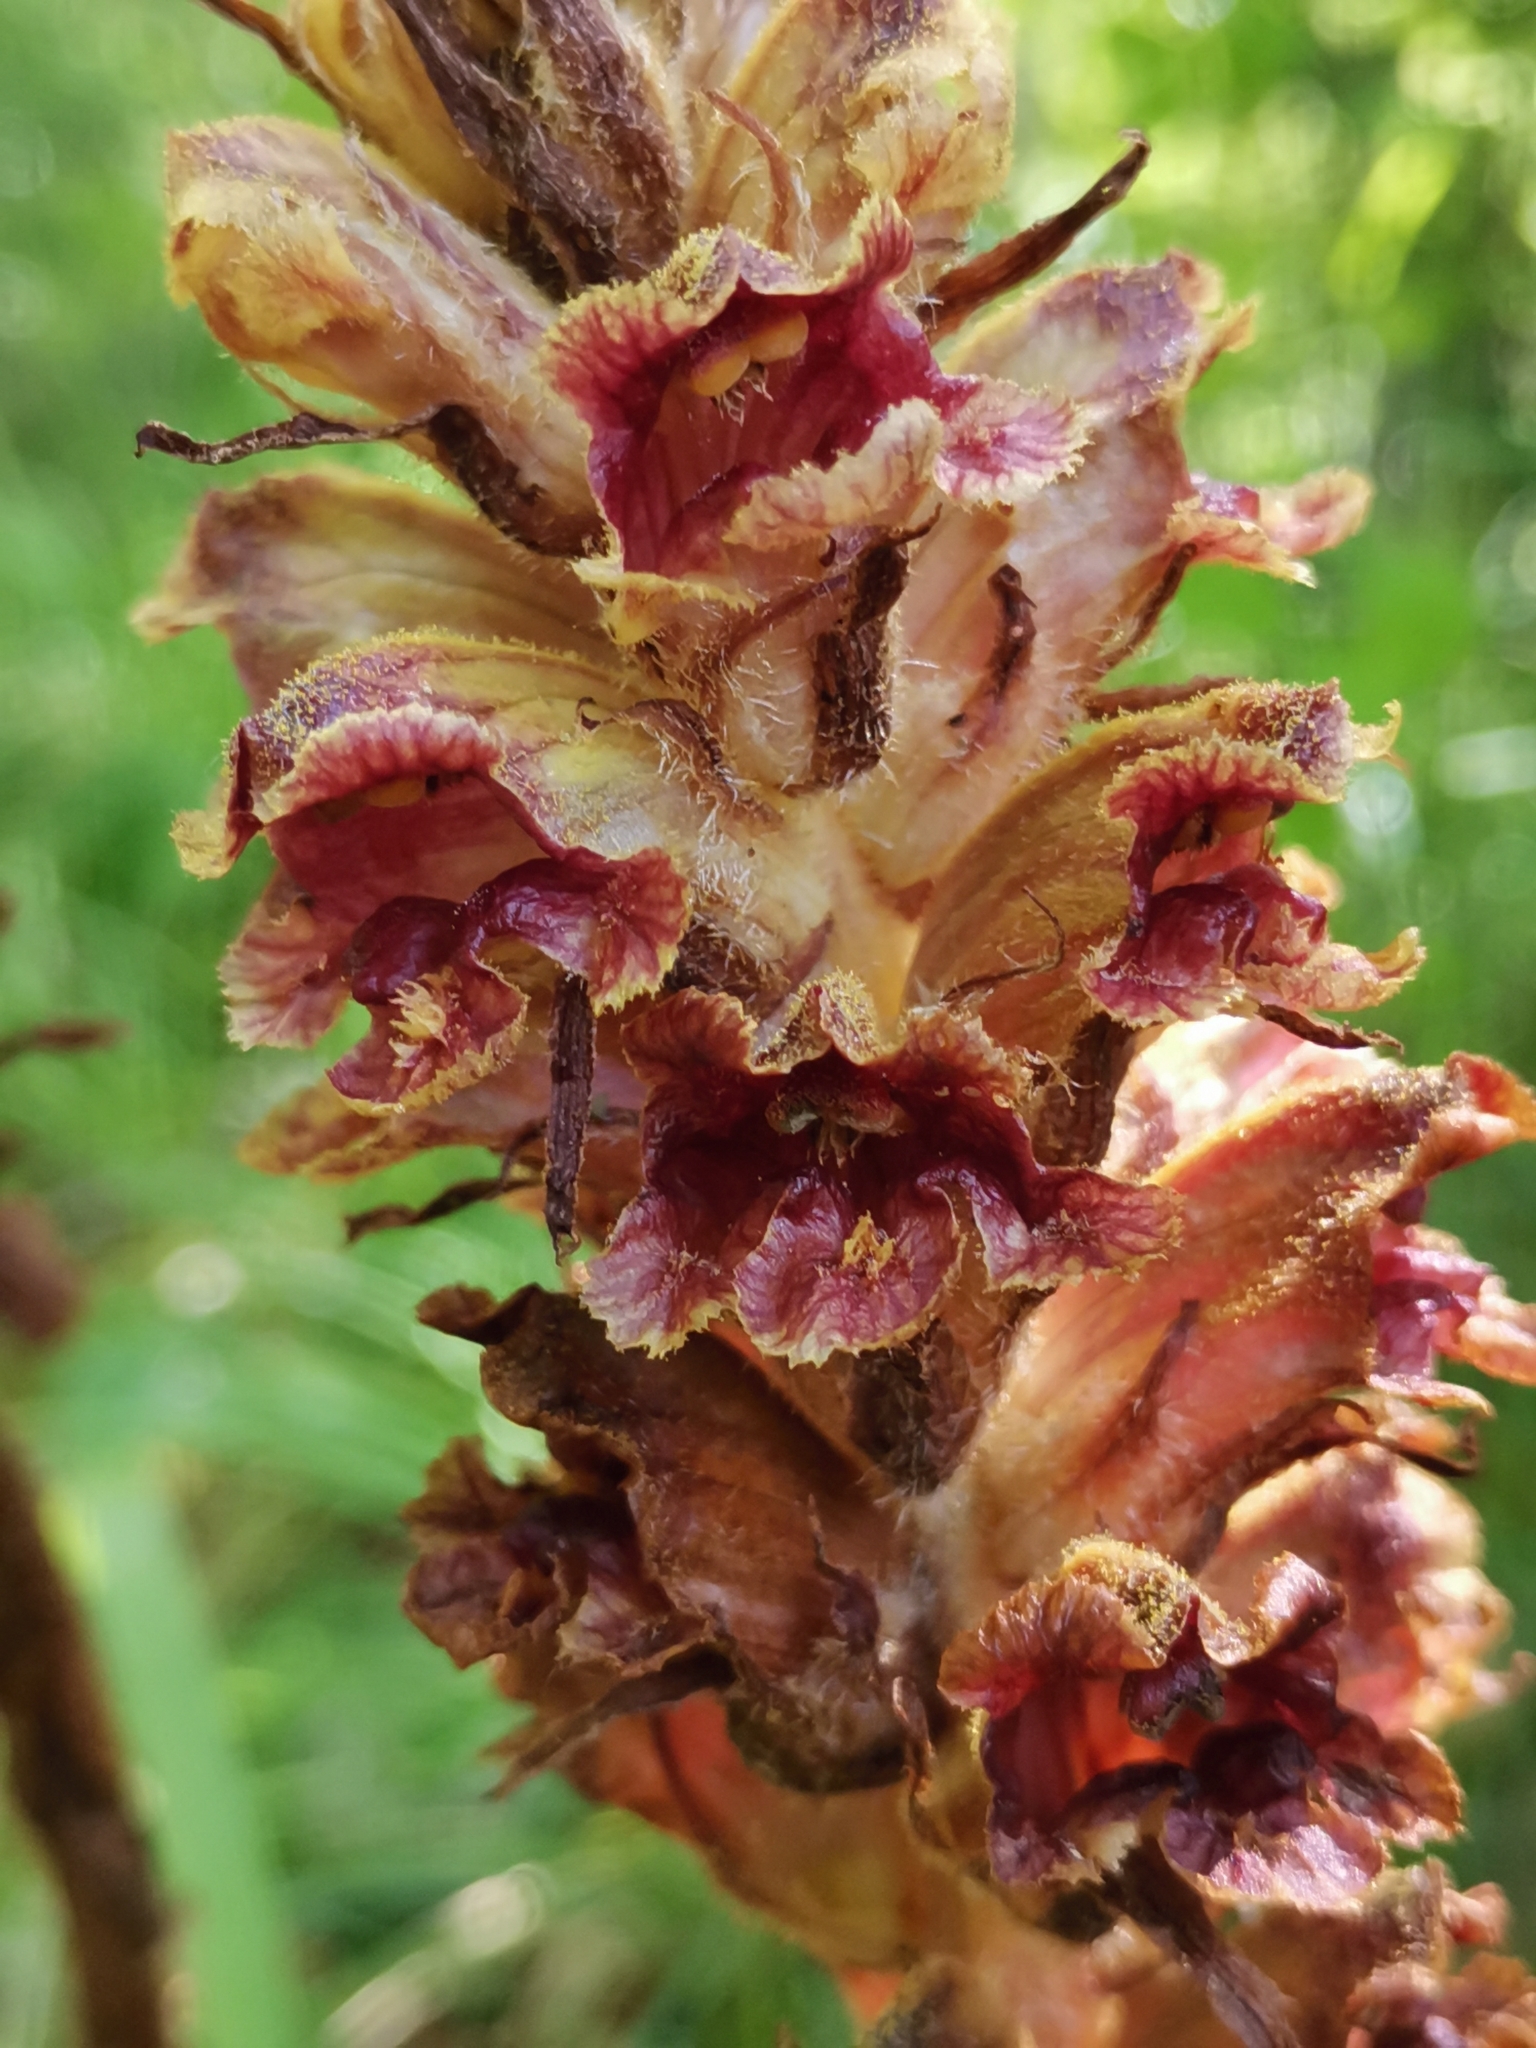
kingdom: Plantae
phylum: Tracheophyta
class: Magnoliopsida
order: Lamiales
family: Orobanchaceae
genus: Orobanche
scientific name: Orobanche gracilis
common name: Slender broomrape
